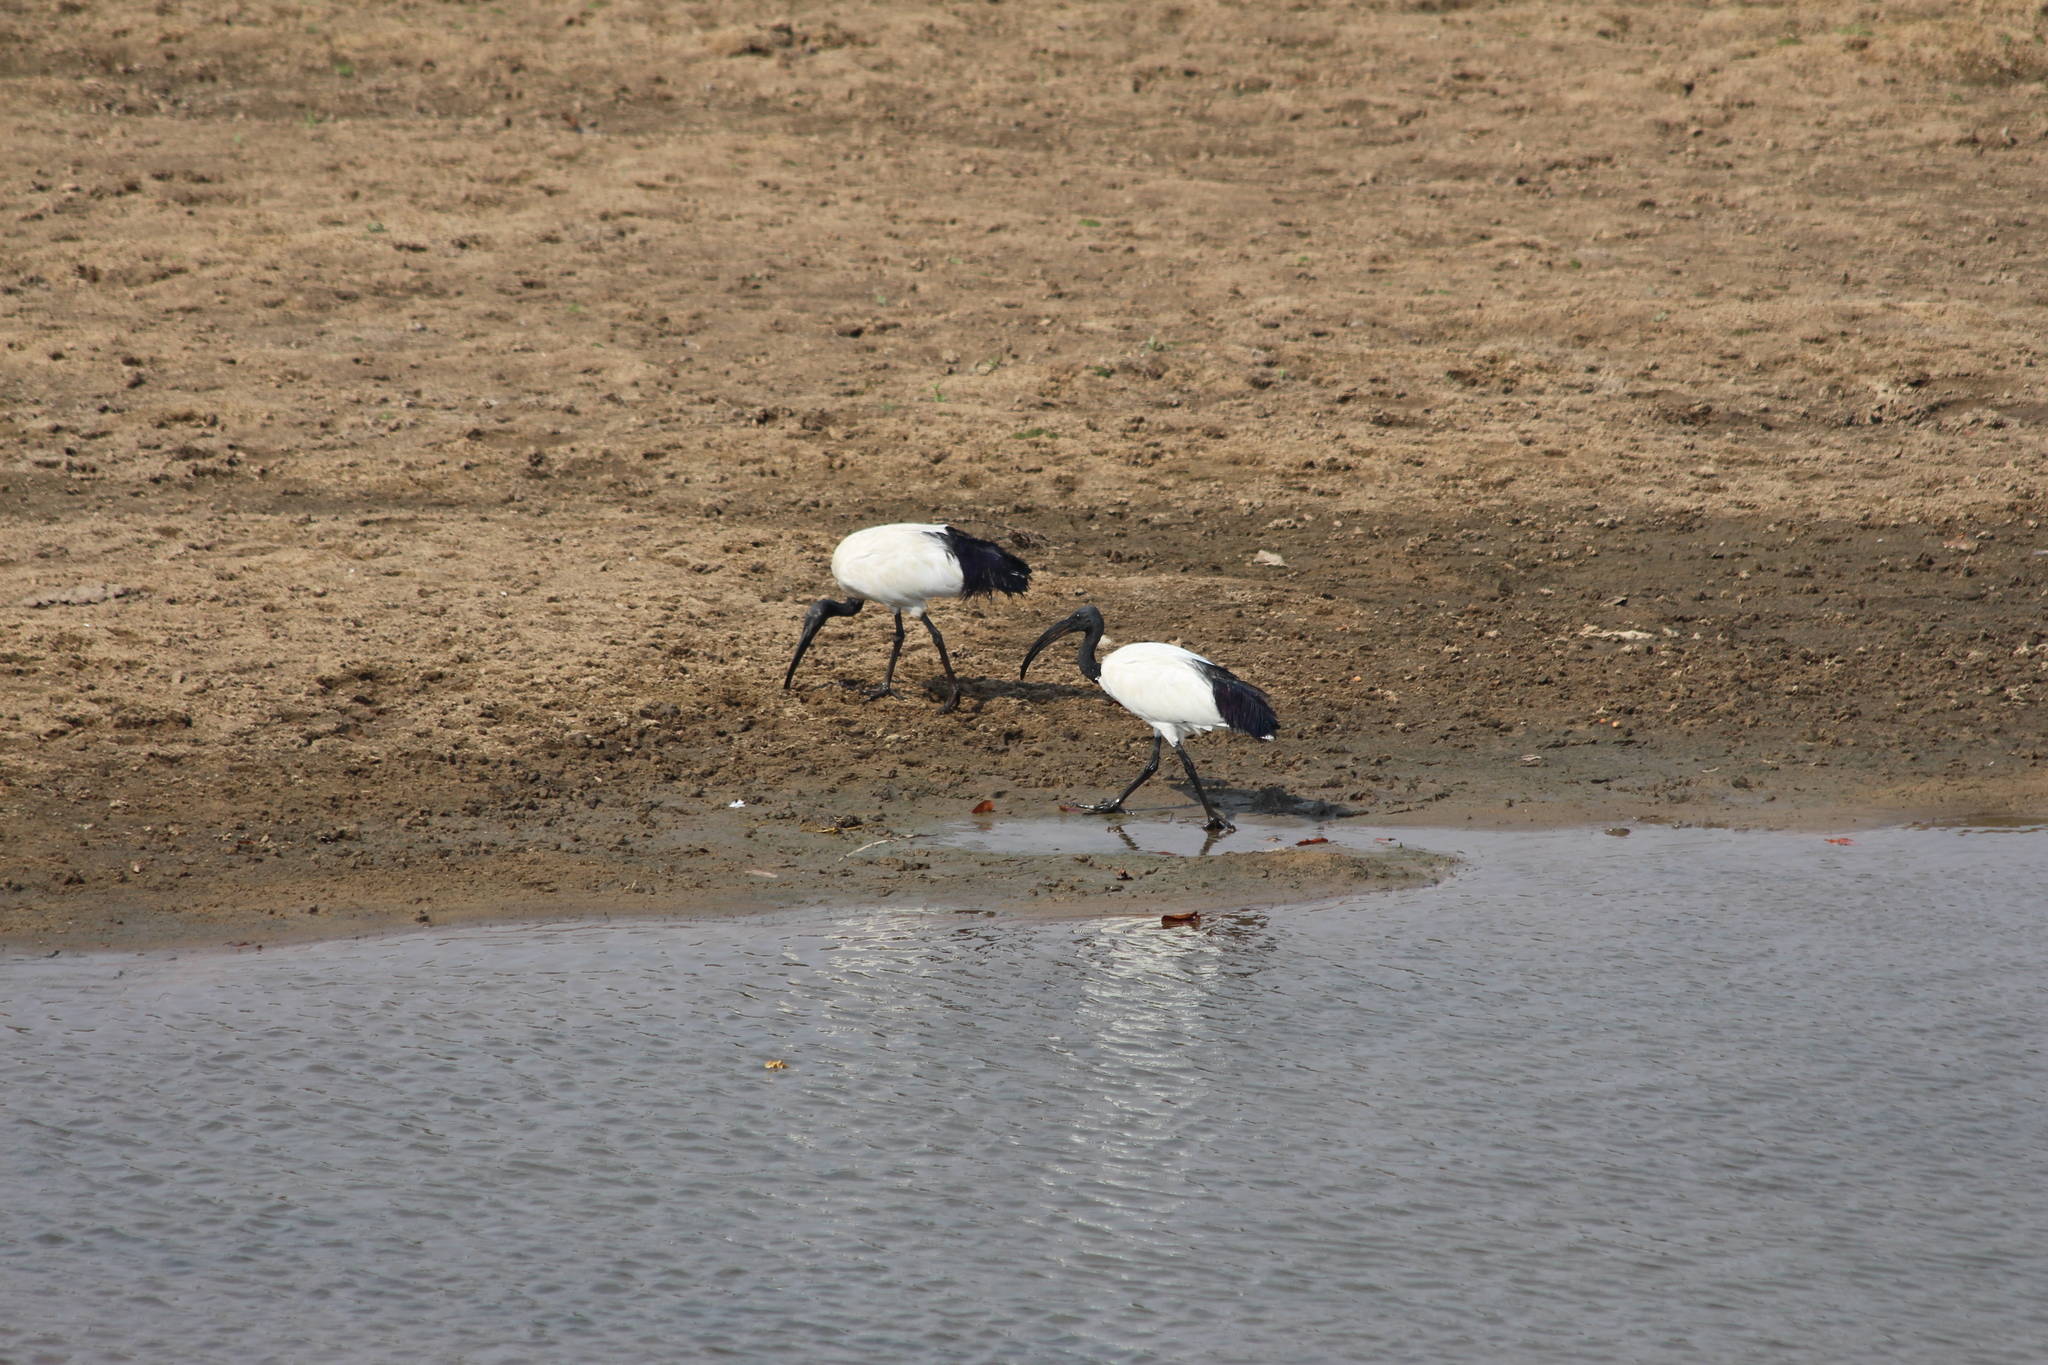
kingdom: Animalia
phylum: Chordata
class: Aves
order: Pelecaniformes
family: Threskiornithidae
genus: Threskiornis
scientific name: Threskiornis aethiopicus
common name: Sacred ibis
